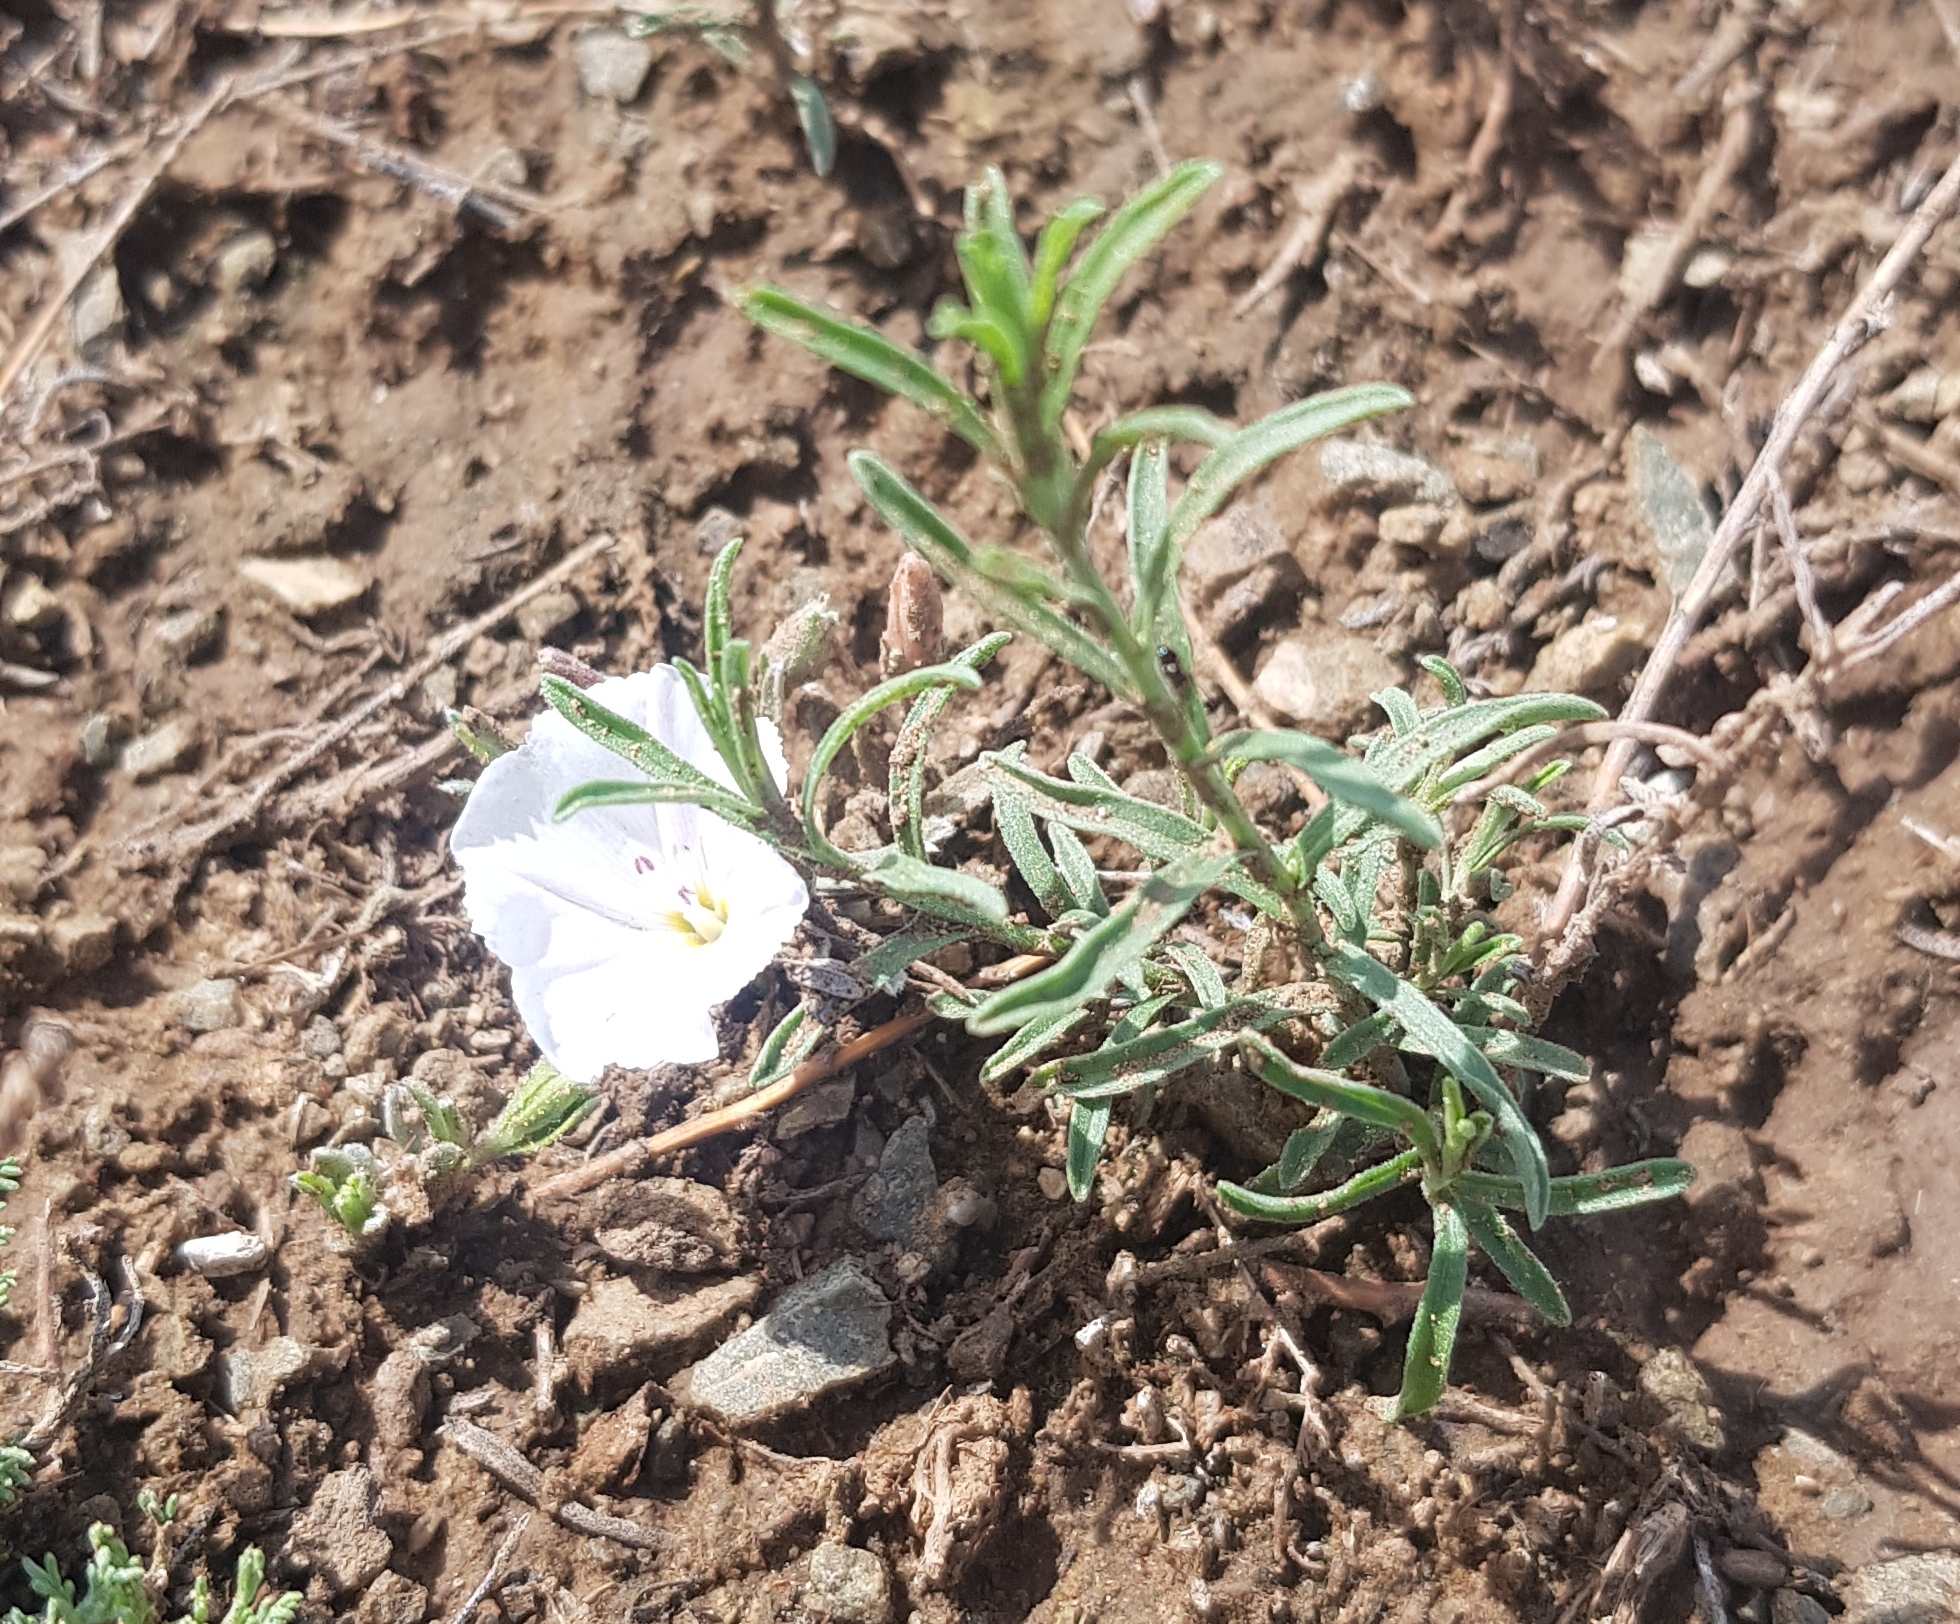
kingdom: Plantae
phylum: Tracheophyta
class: Magnoliopsida
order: Solanales
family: Convolvulaceae
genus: Convolvulus
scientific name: Convolvulus ammannii
